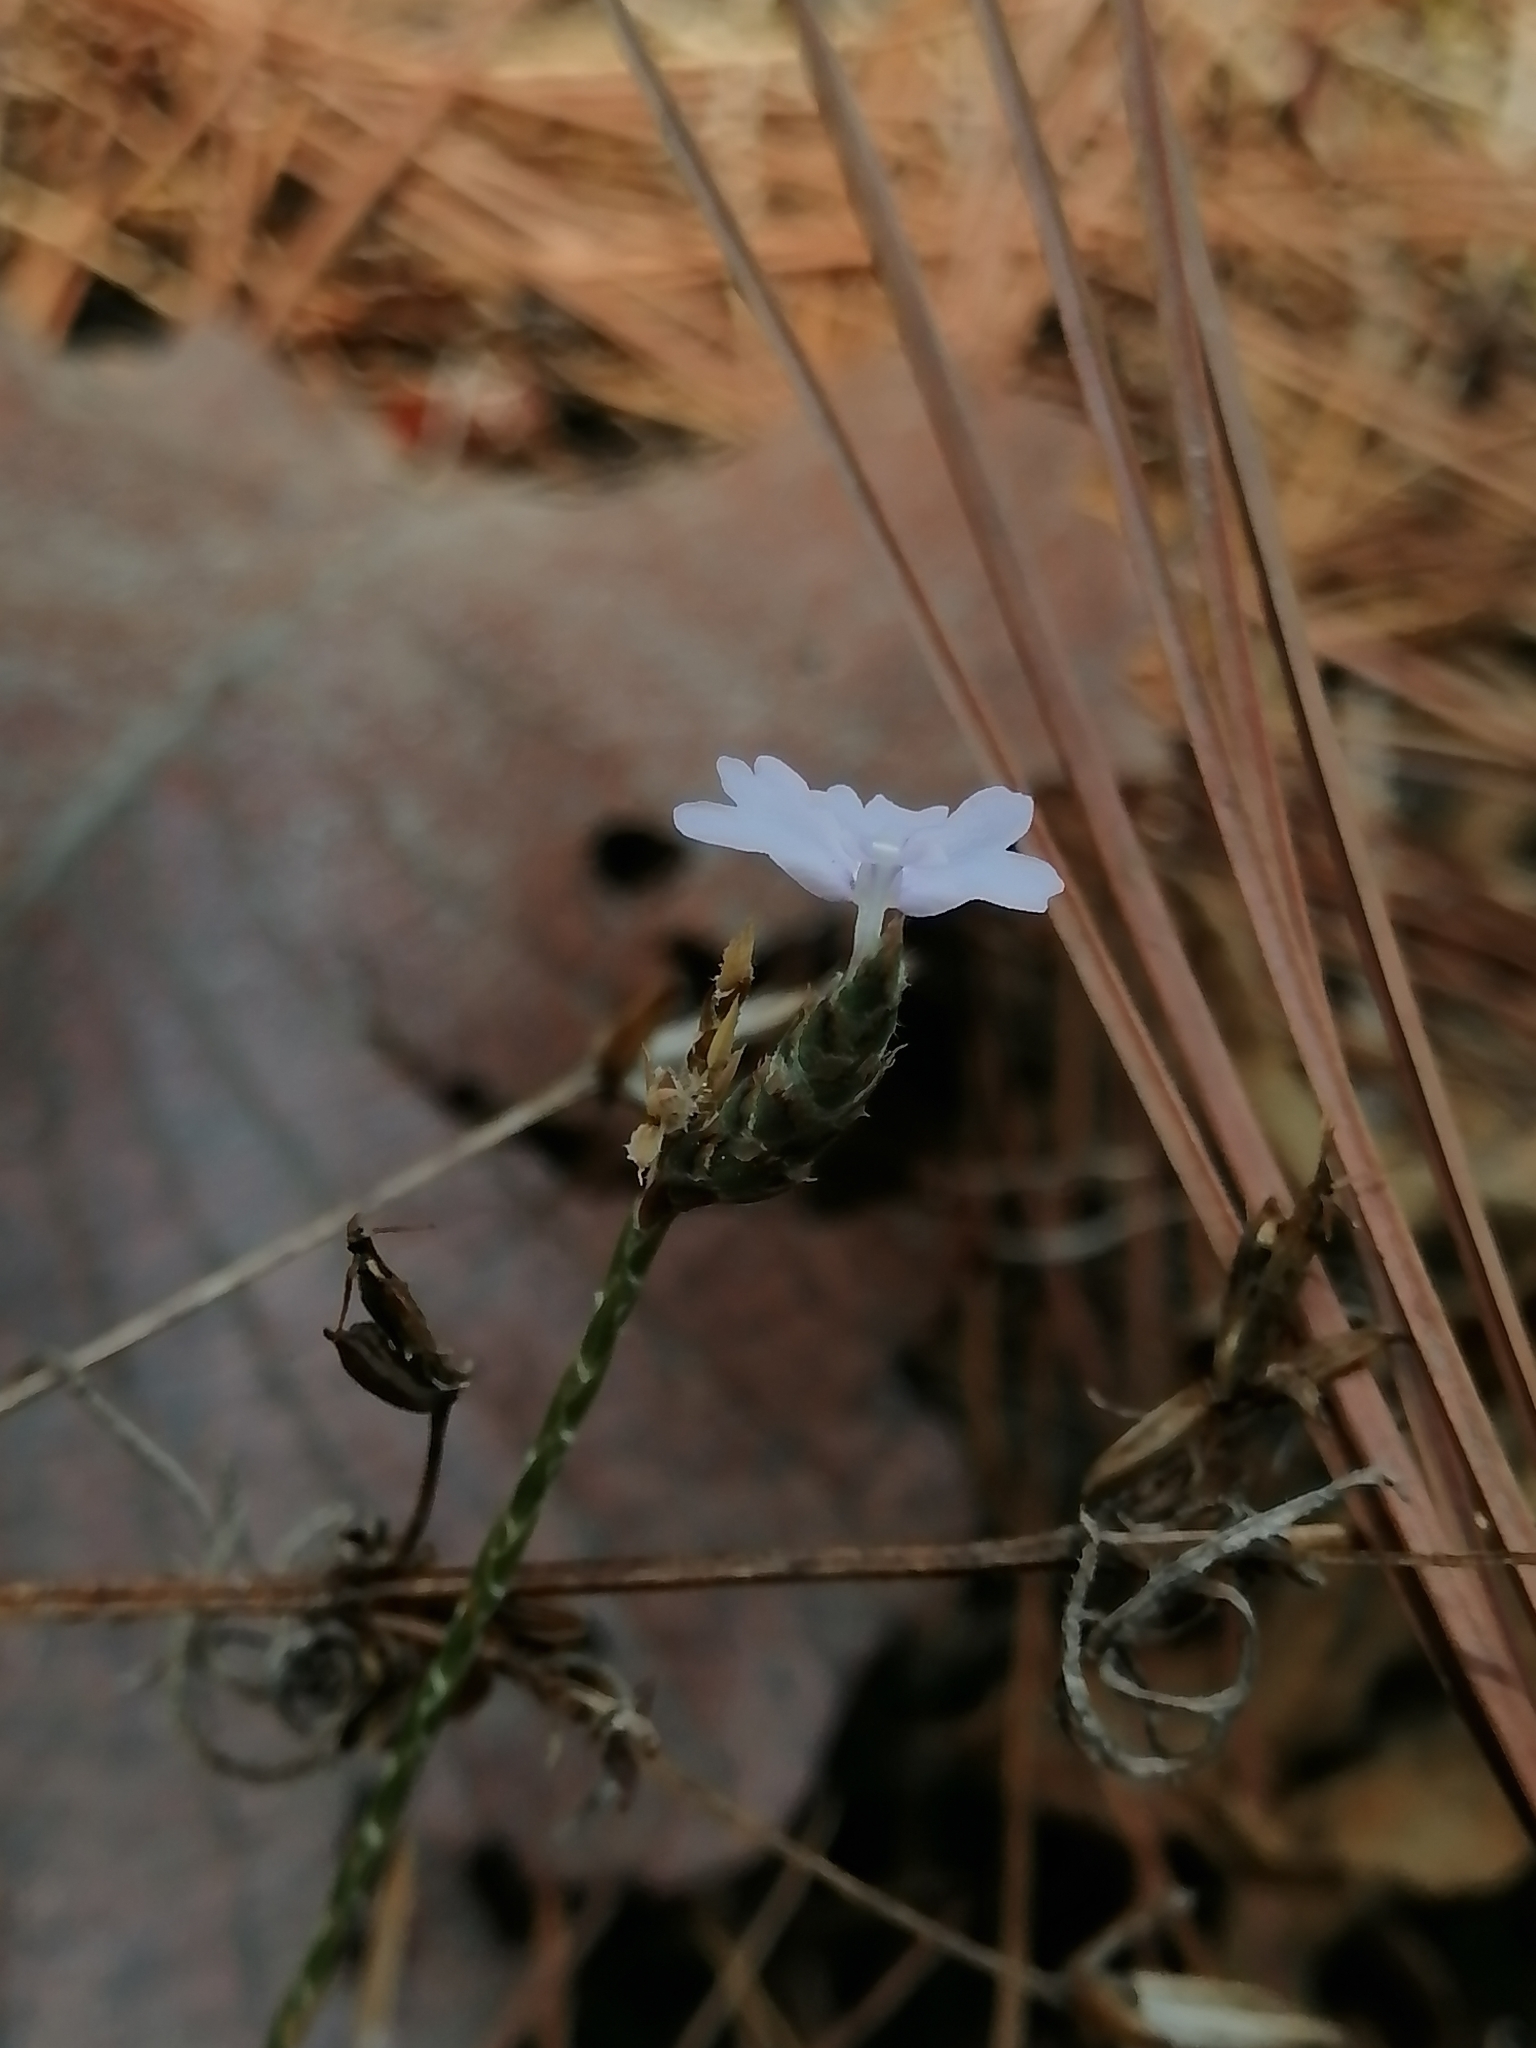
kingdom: Plantae
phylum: Tracheophyta
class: Magnoliopsida
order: Lamiales
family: Acanthaceae
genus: Elytraria
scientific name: Elytraria imbricata
